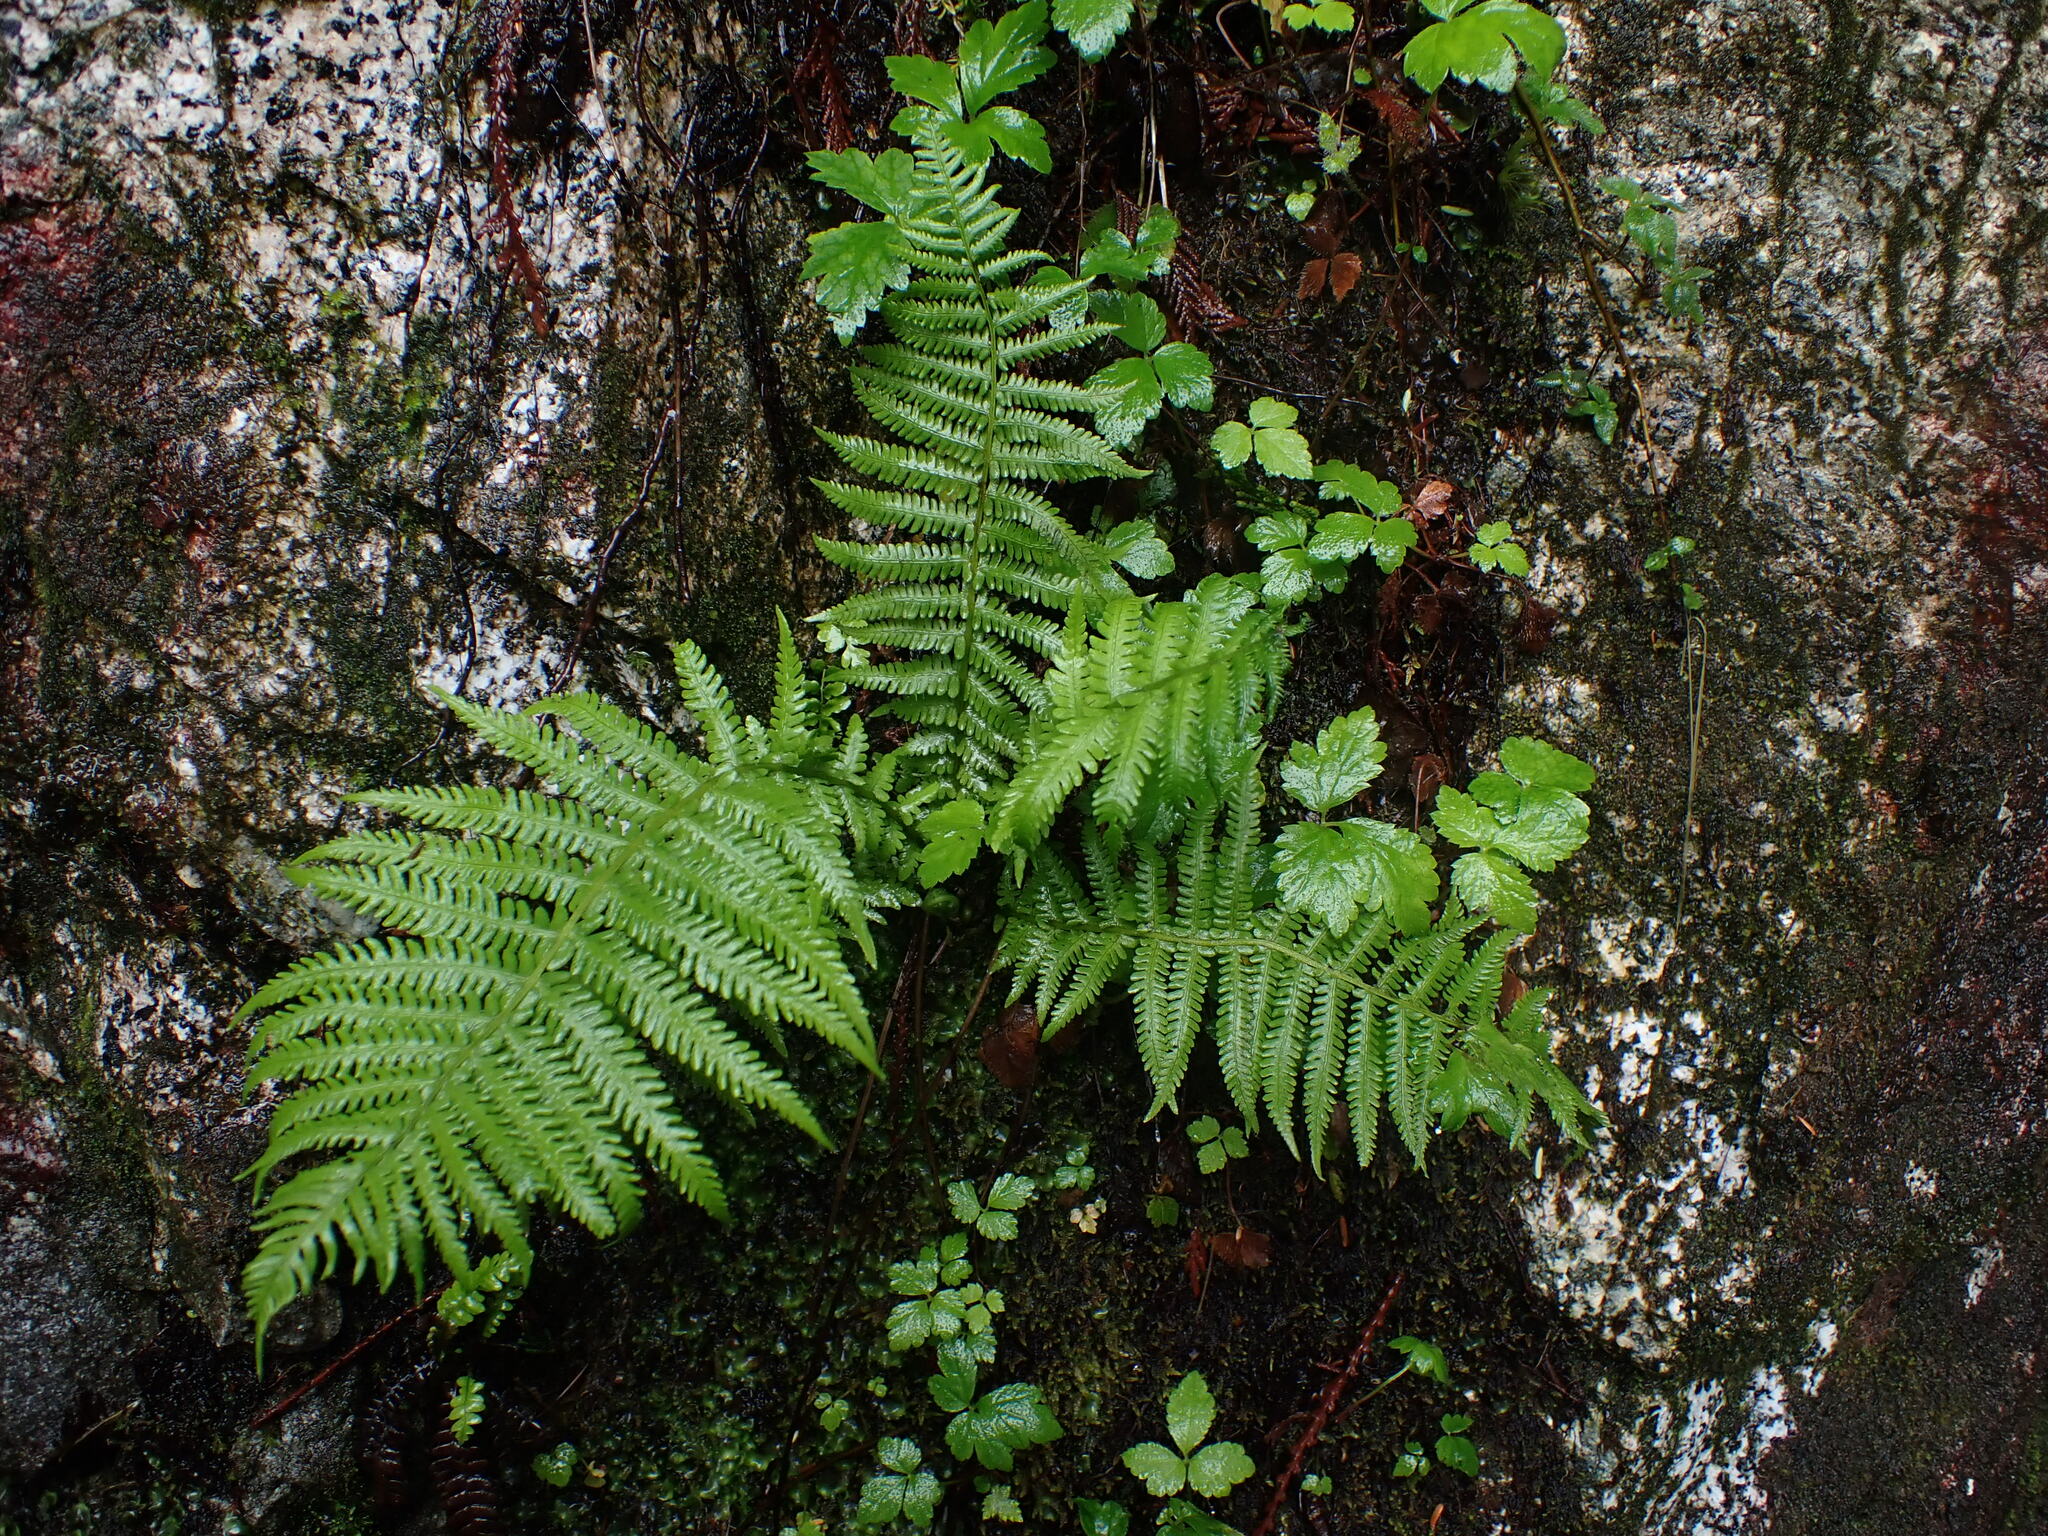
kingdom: Plantae
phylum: Tracheophyta
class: Polypodiopsida
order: Polypodiales
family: Thelypteridaceae
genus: Oreopteris
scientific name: Oreopteris quelpartensis
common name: Mountain fern
